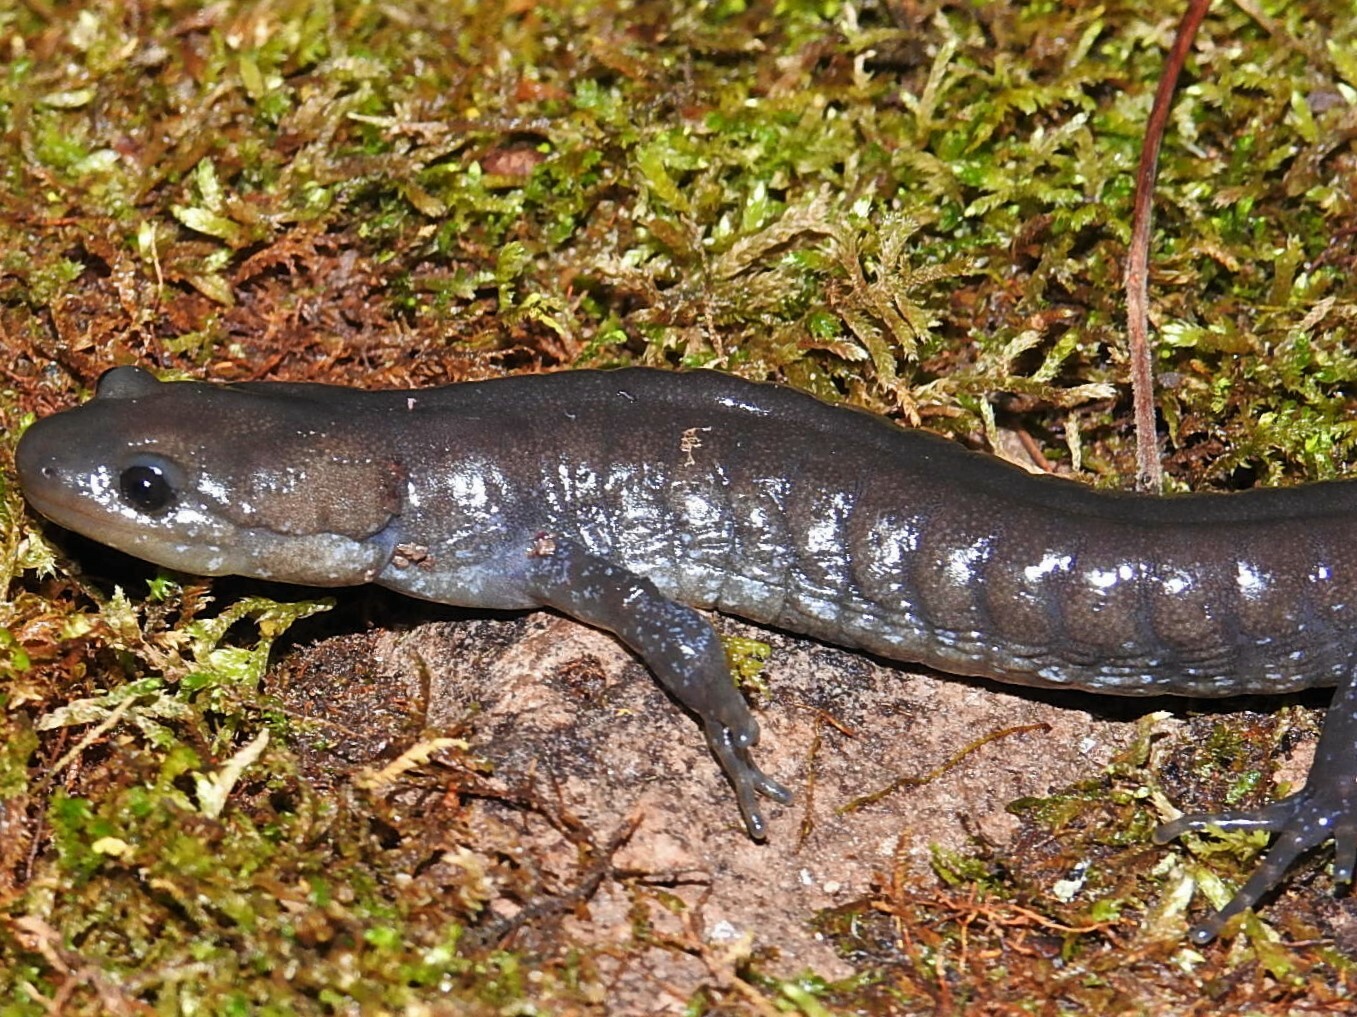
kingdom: Animalia
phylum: Chordata
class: Amphibia
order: Caudata
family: Ambystomatidae
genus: Ambystoma
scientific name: Ambystoma jeffersonianum
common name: Jefferson salamander
